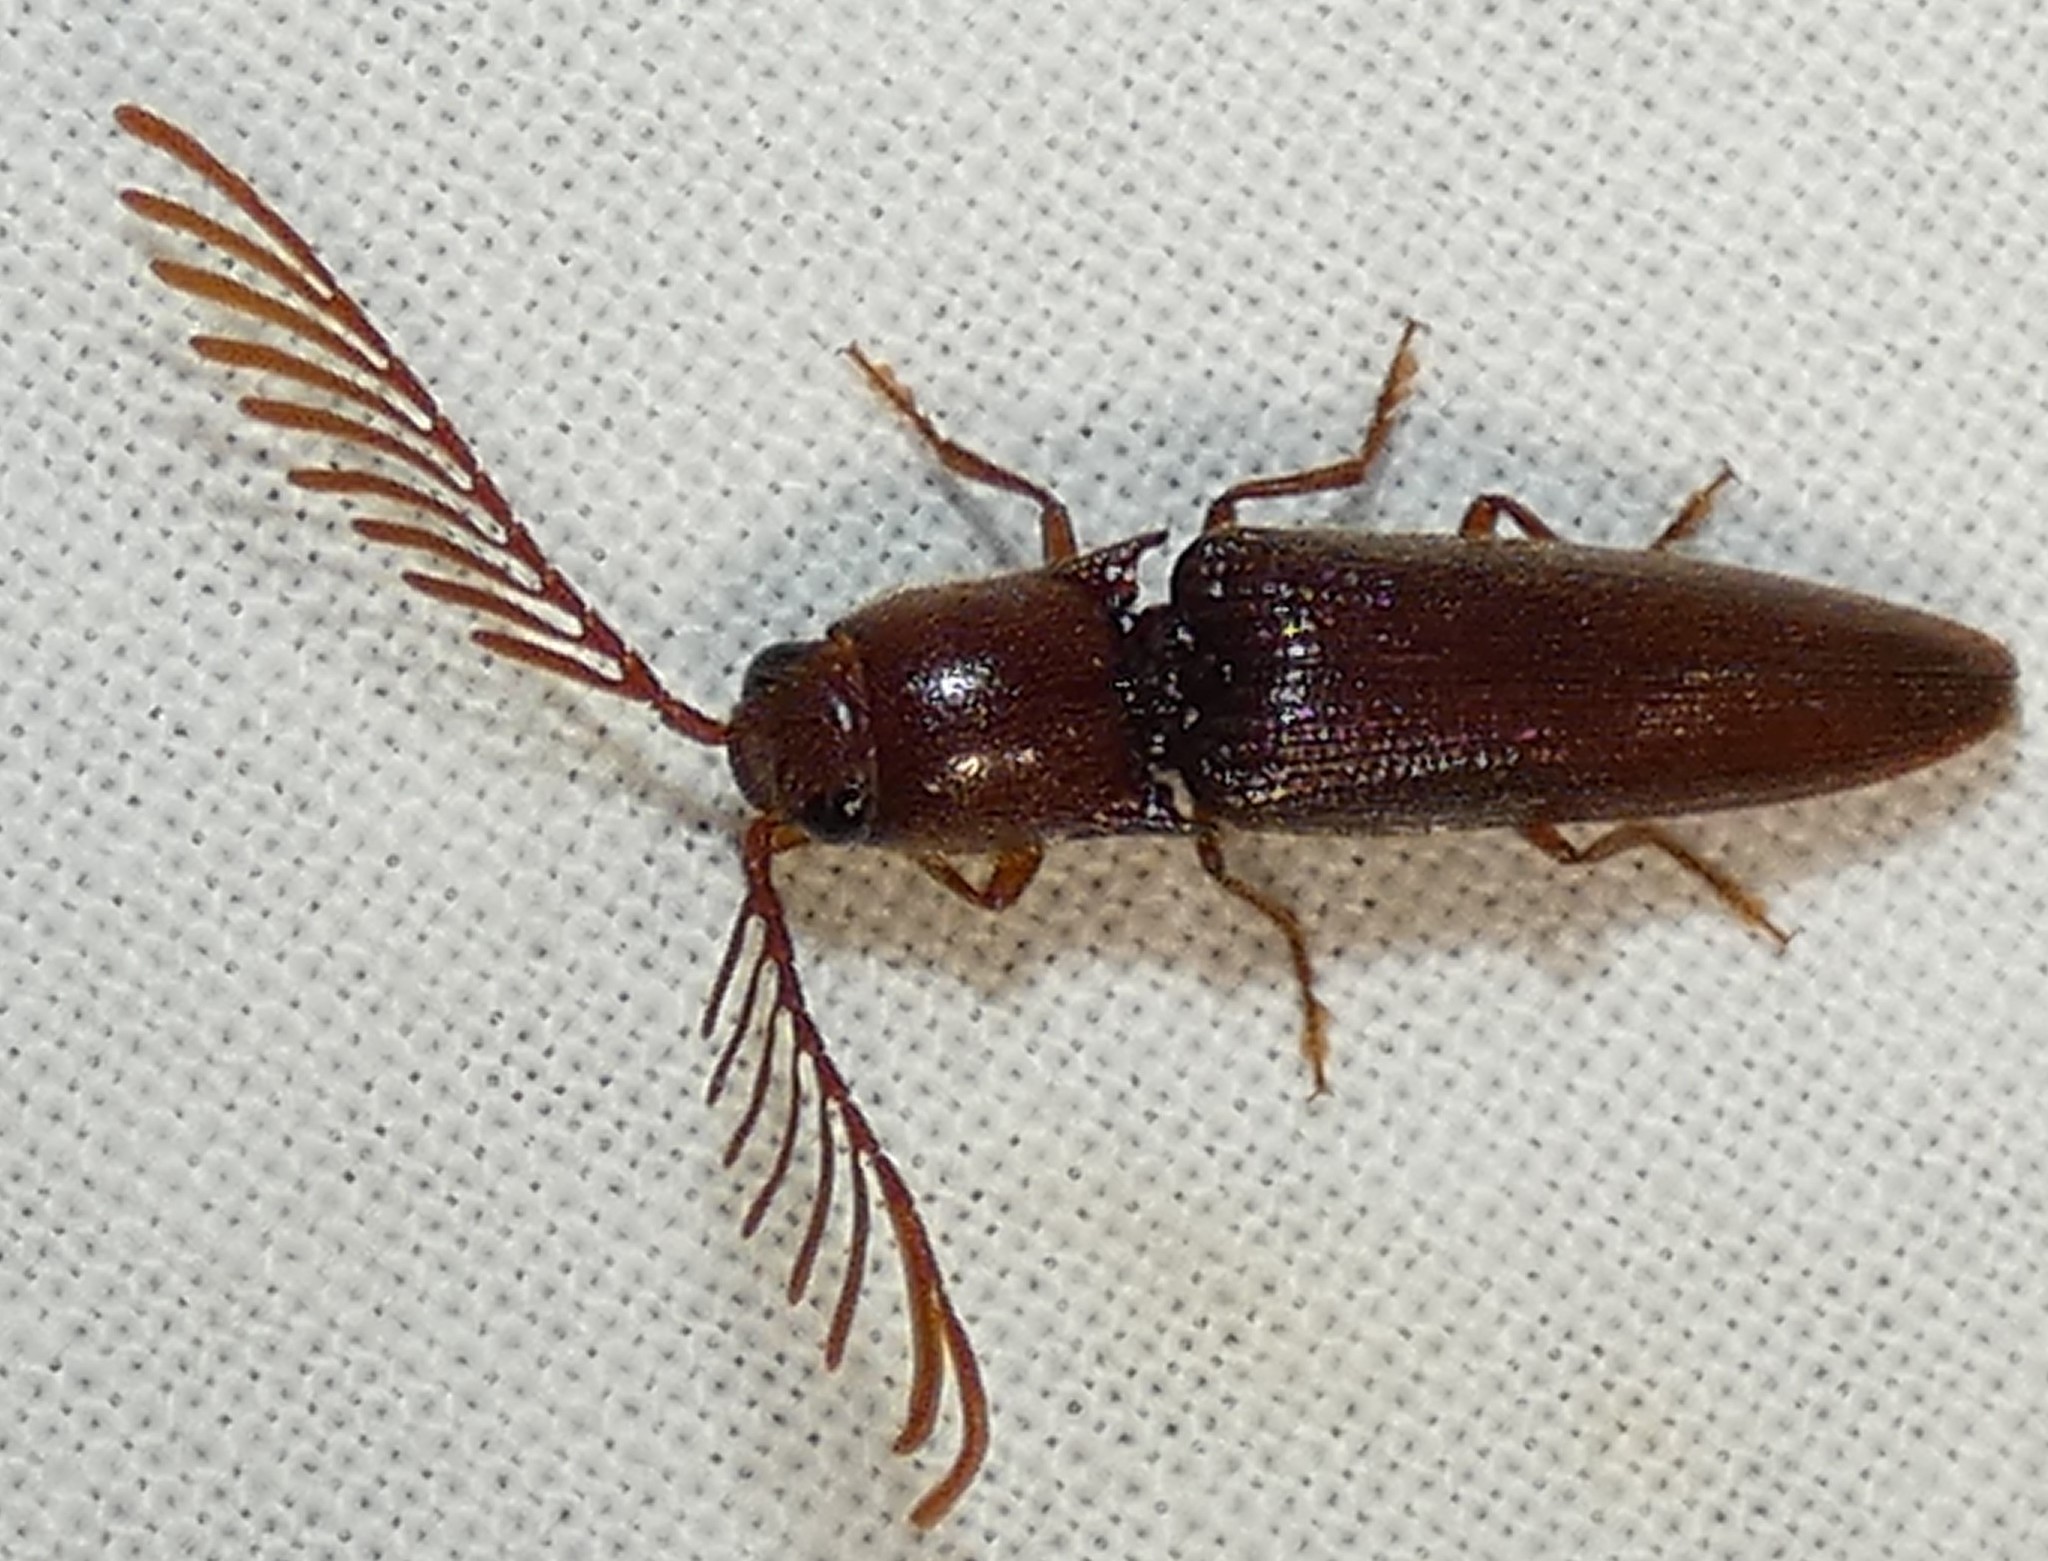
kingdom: Animalia
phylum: Arthropoda
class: Insecta
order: Coleoptera
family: Elateridae
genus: Dicrepidius
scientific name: Dicrepidius palmatus
